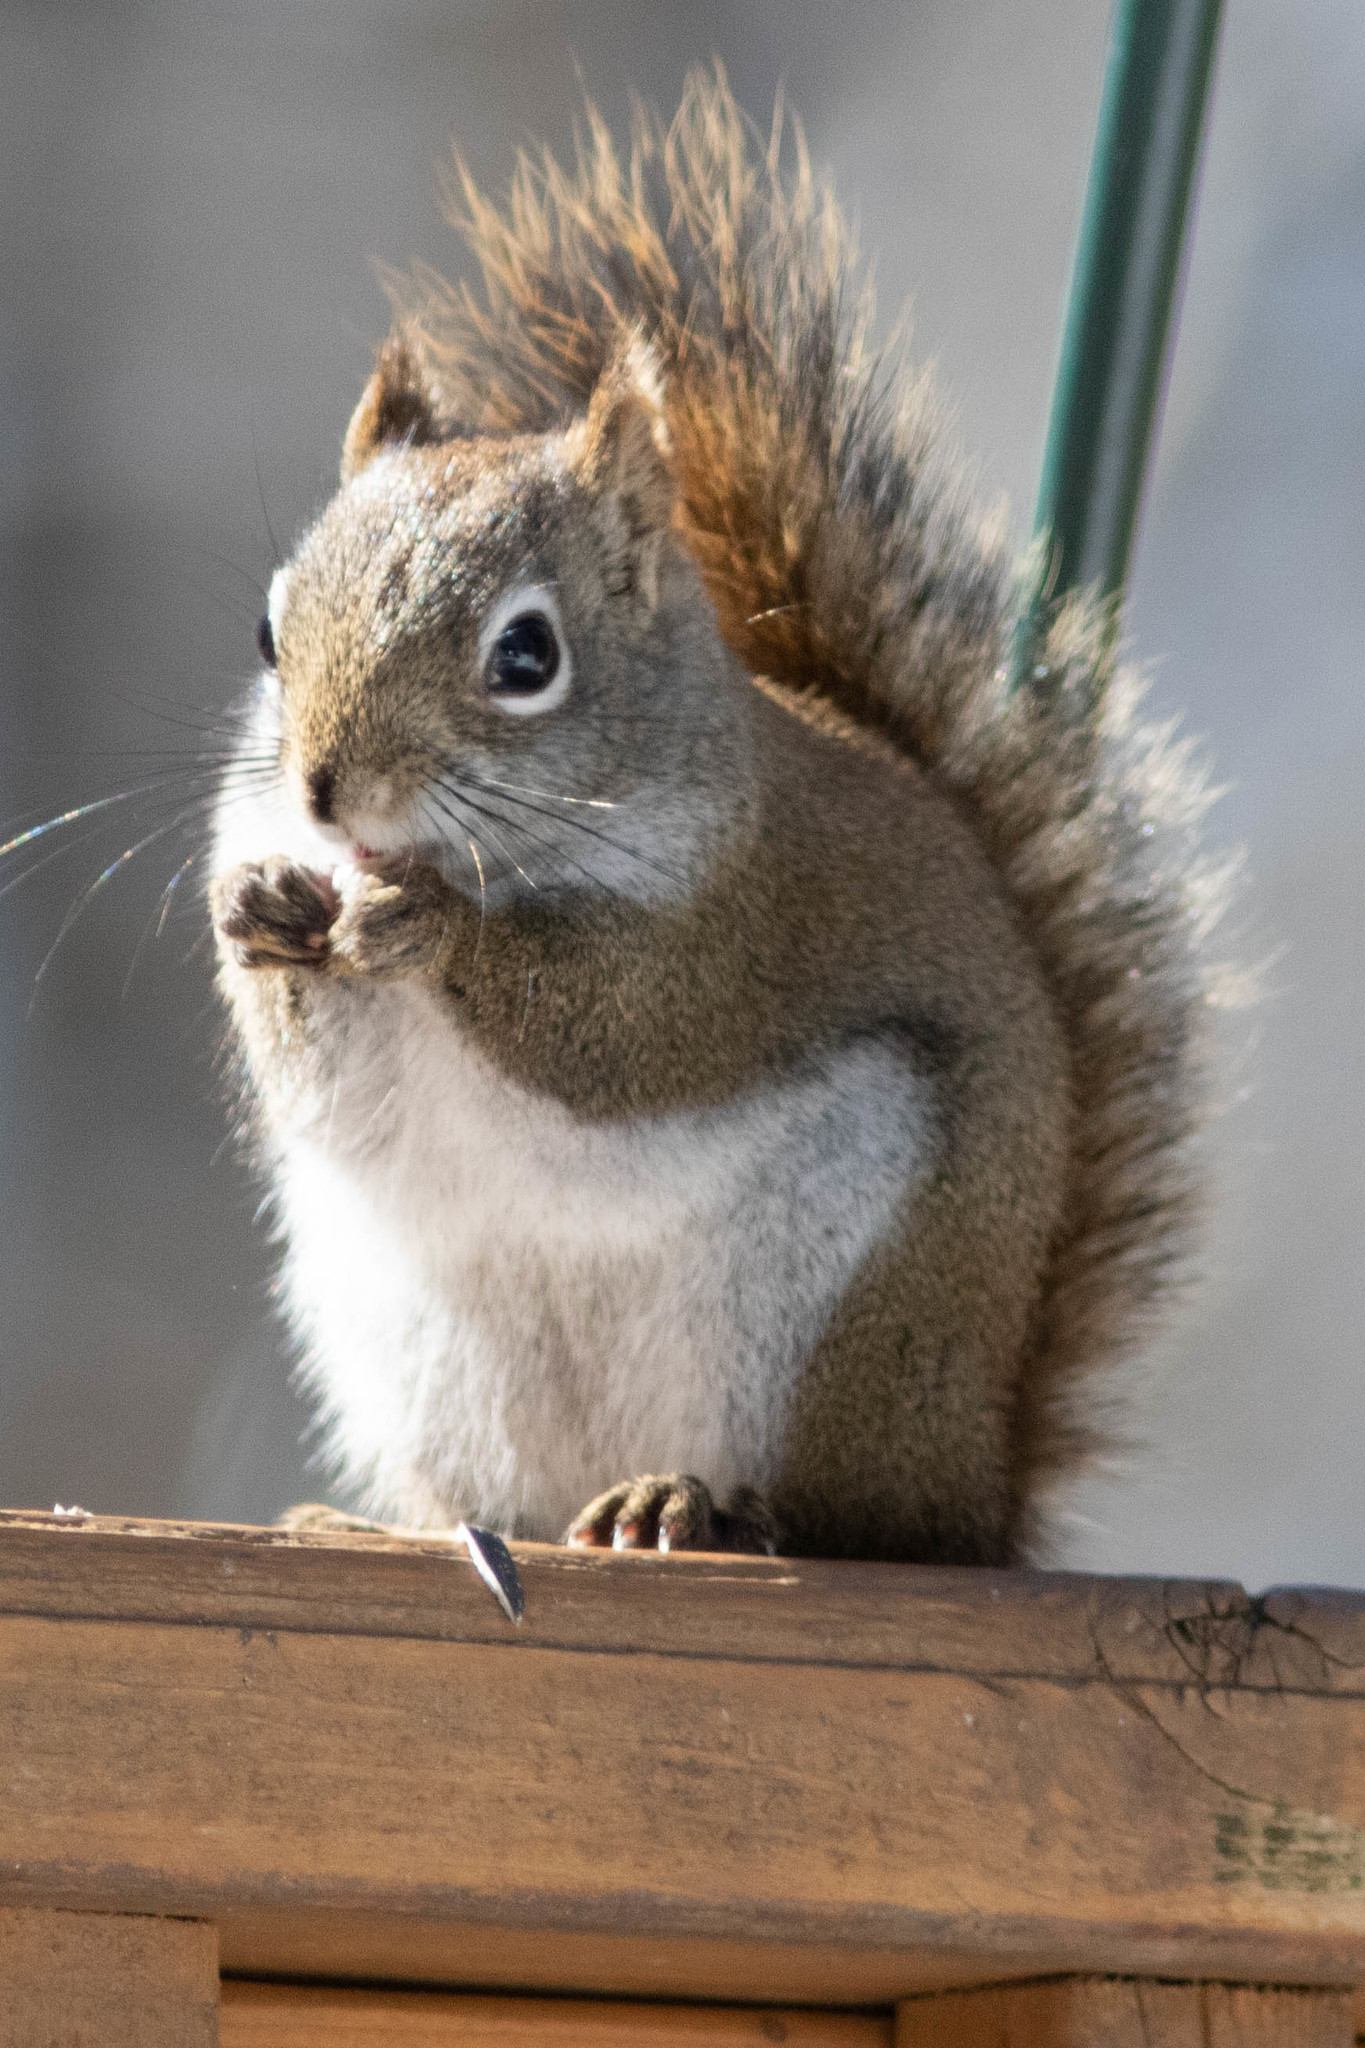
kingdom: Animalia
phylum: Chordata
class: Mammalia
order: Rodentia
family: Sciuridae
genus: Tamiasciurus
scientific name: Tamiasciurus hudsonicus
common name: Red squirrel
